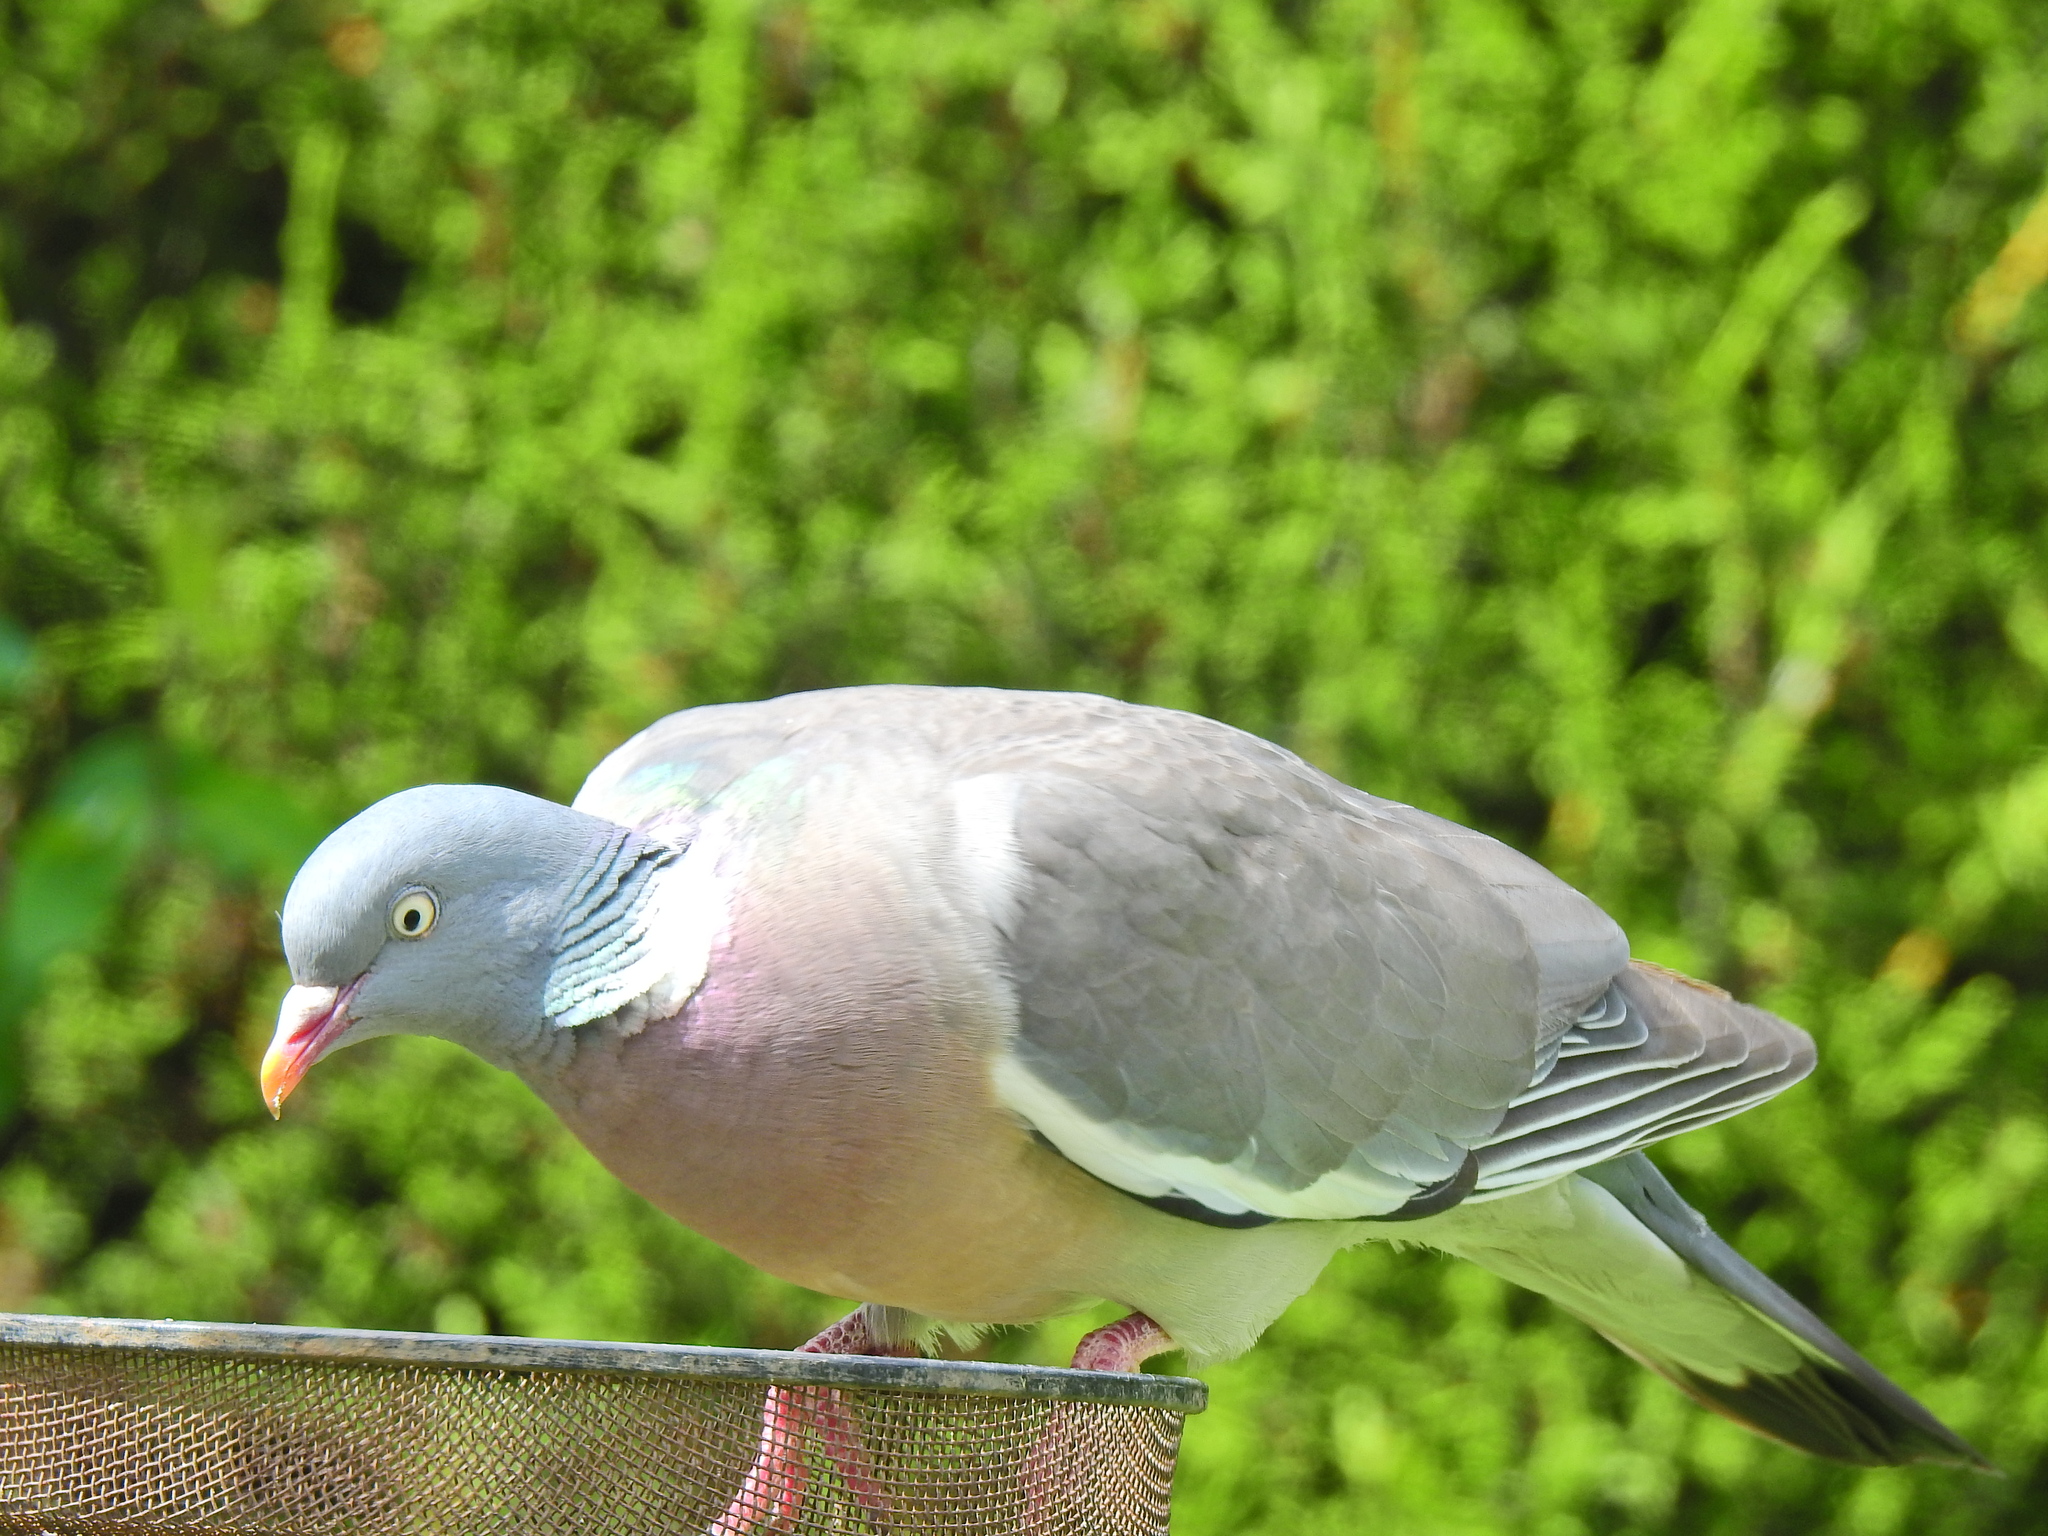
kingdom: Animalia
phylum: Chordata
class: Aves
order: Columbiformes
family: Columbidae
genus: Columba
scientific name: Columba palumbus
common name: Common wood pigeon
